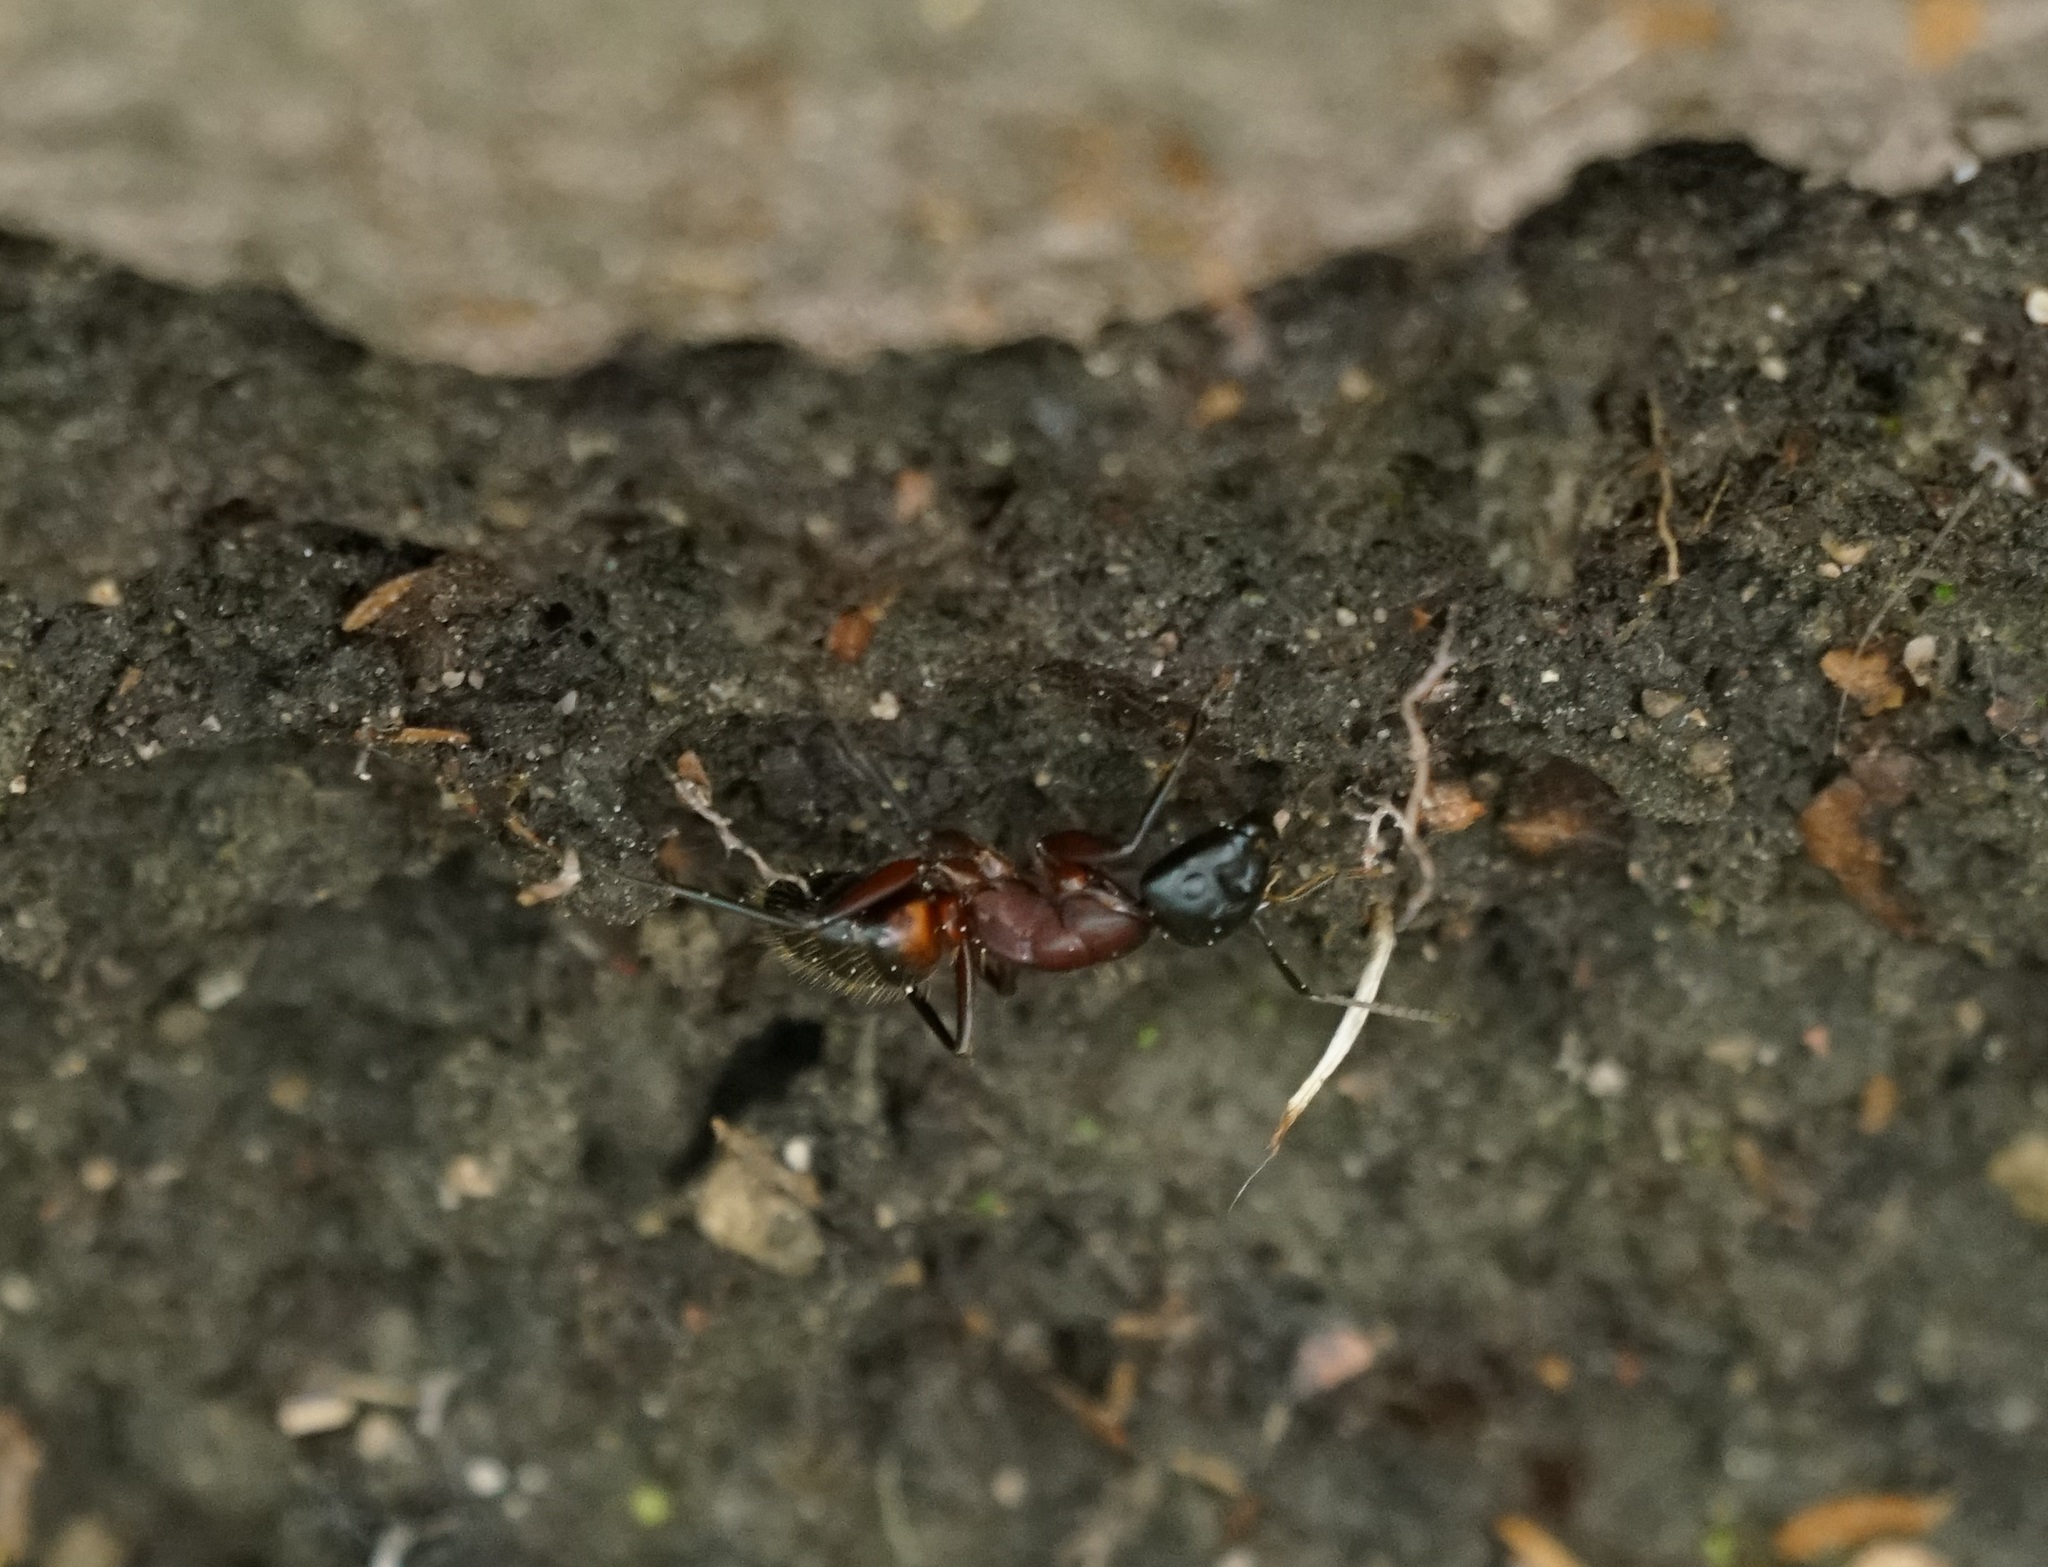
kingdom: Animalia
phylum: Arthropoda
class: Insecta
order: Hymenoptera
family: Formicidae
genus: Camponotus
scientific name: Camponotus ligniperdus
